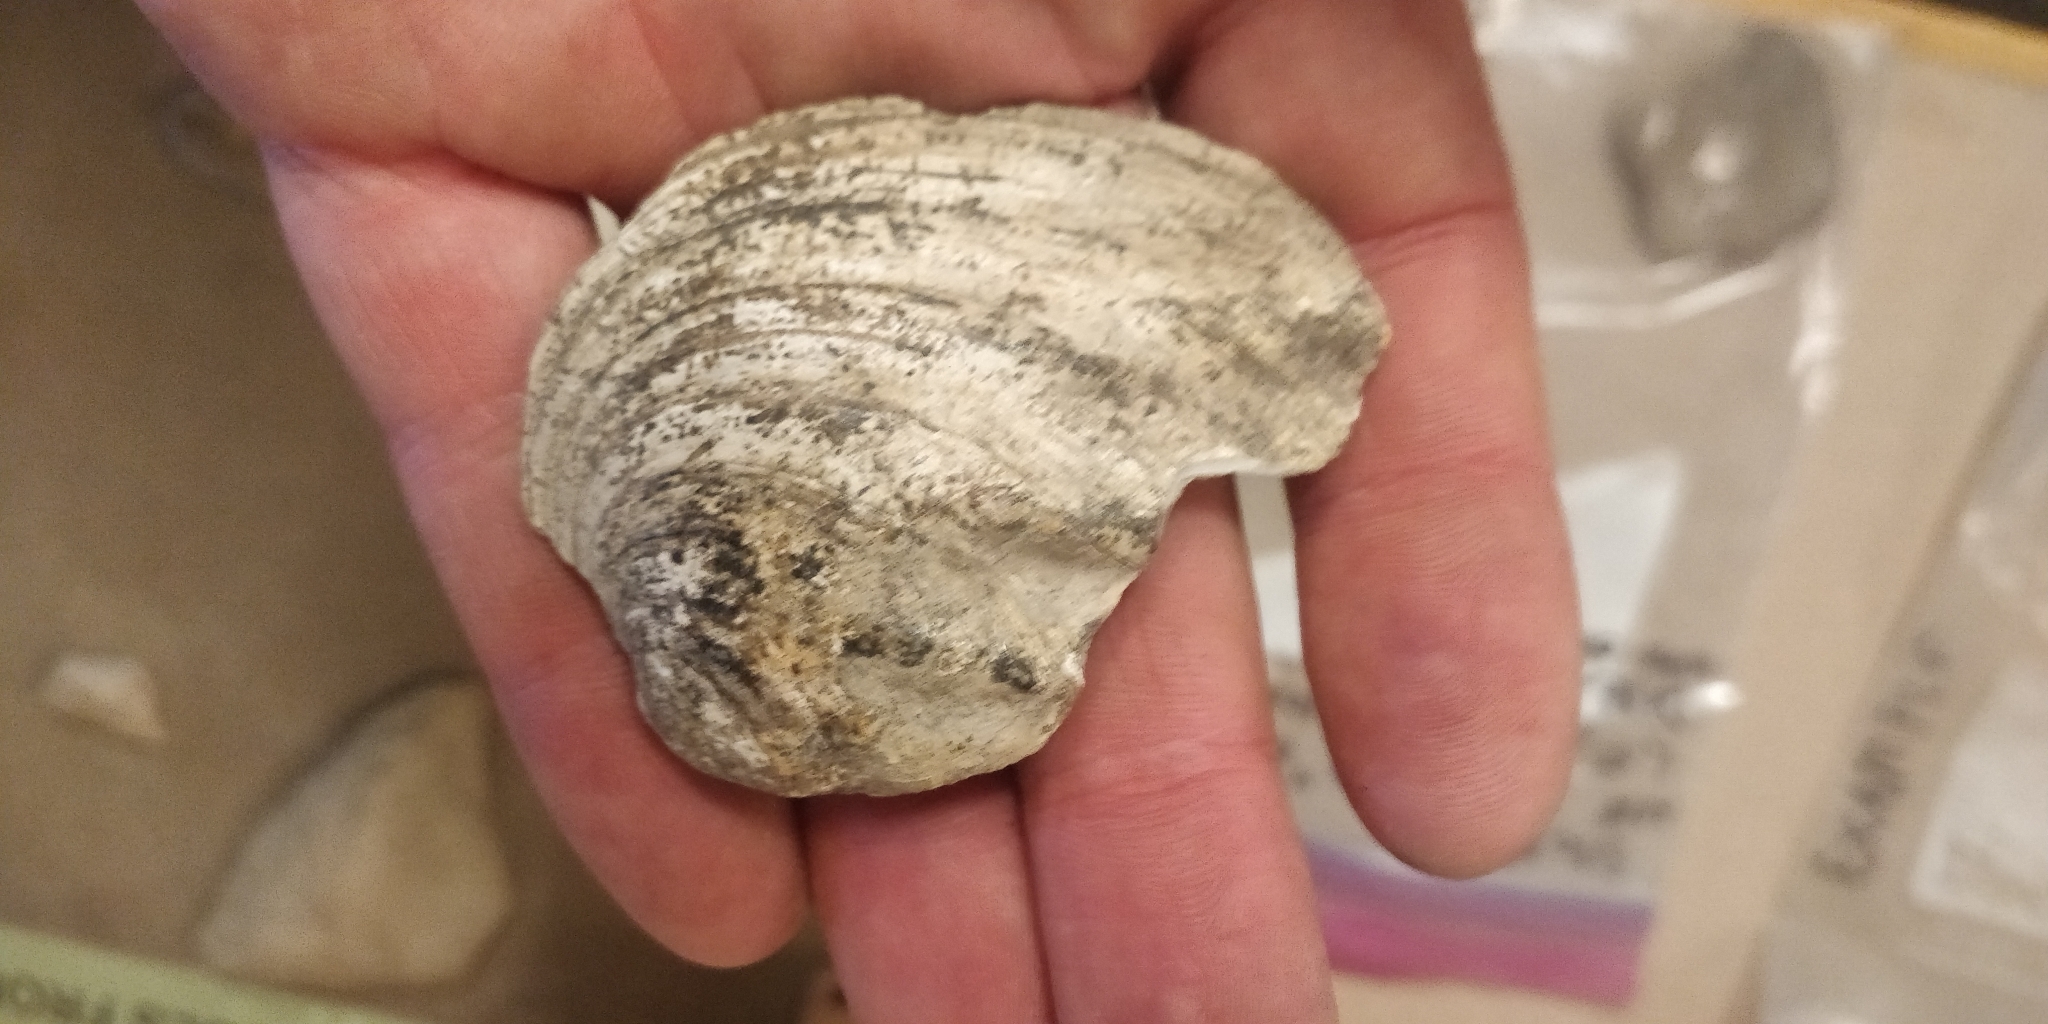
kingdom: Animalia
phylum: Mollusca
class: Bivalvia
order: Unionida
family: Unionidae
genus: Amblema
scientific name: Amblema plicata
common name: Threeridge
